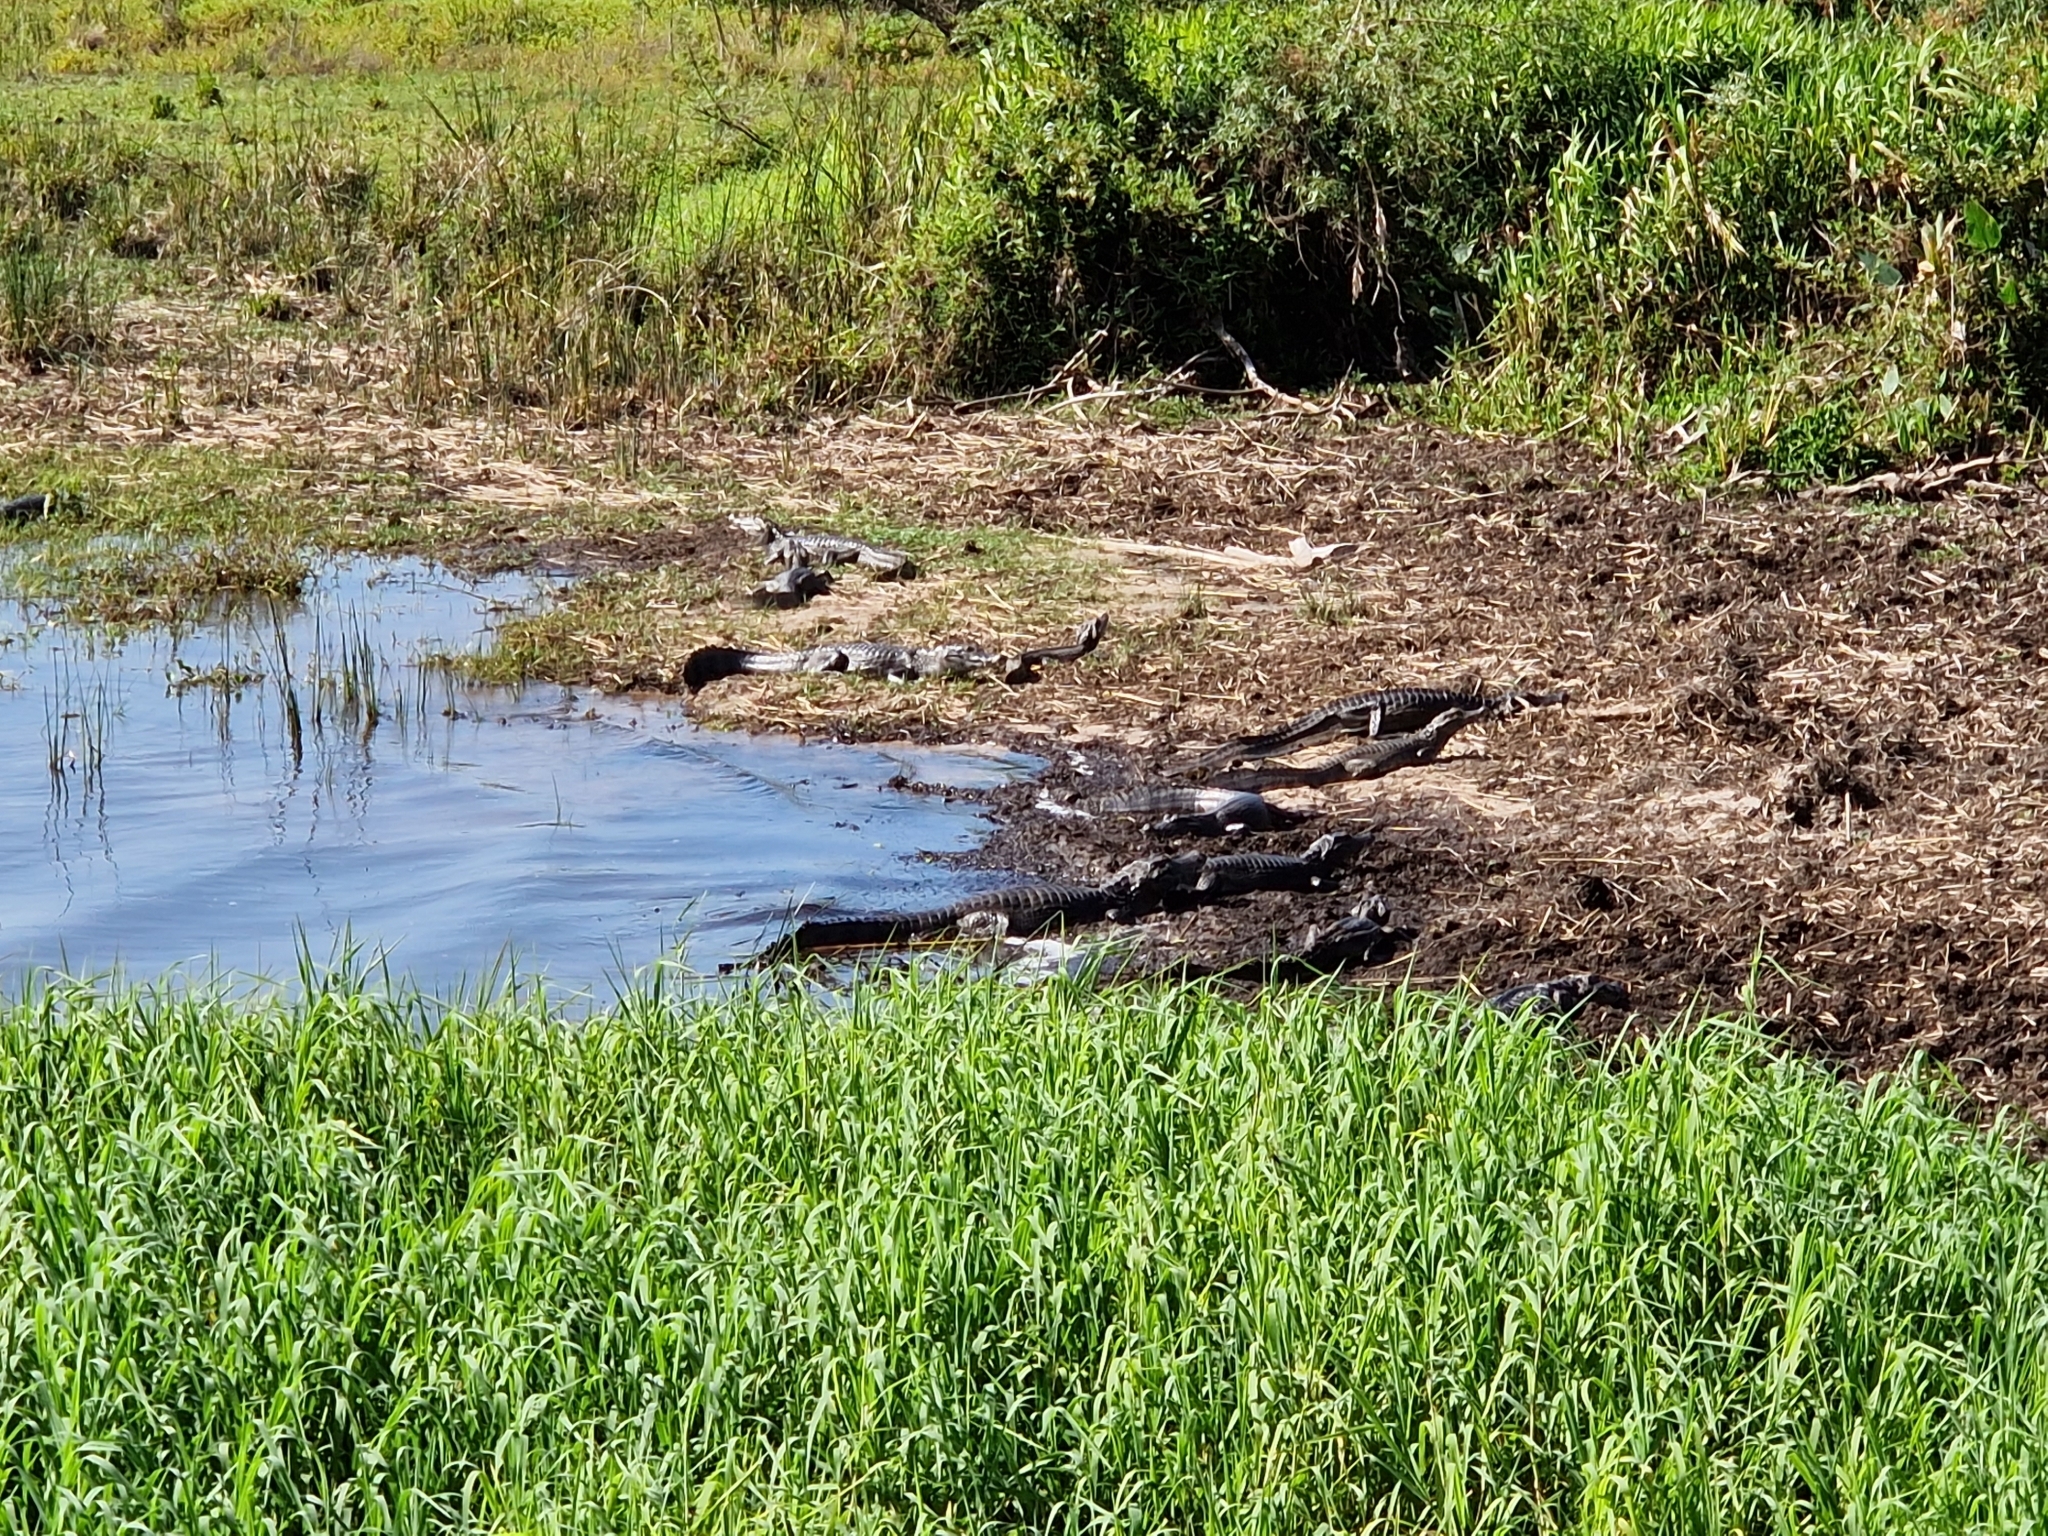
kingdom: Animalia
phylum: Chordata
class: Crocodylia
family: Alligatoridae
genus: Caiman
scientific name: Caiman yacare
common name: Yacare caiman
